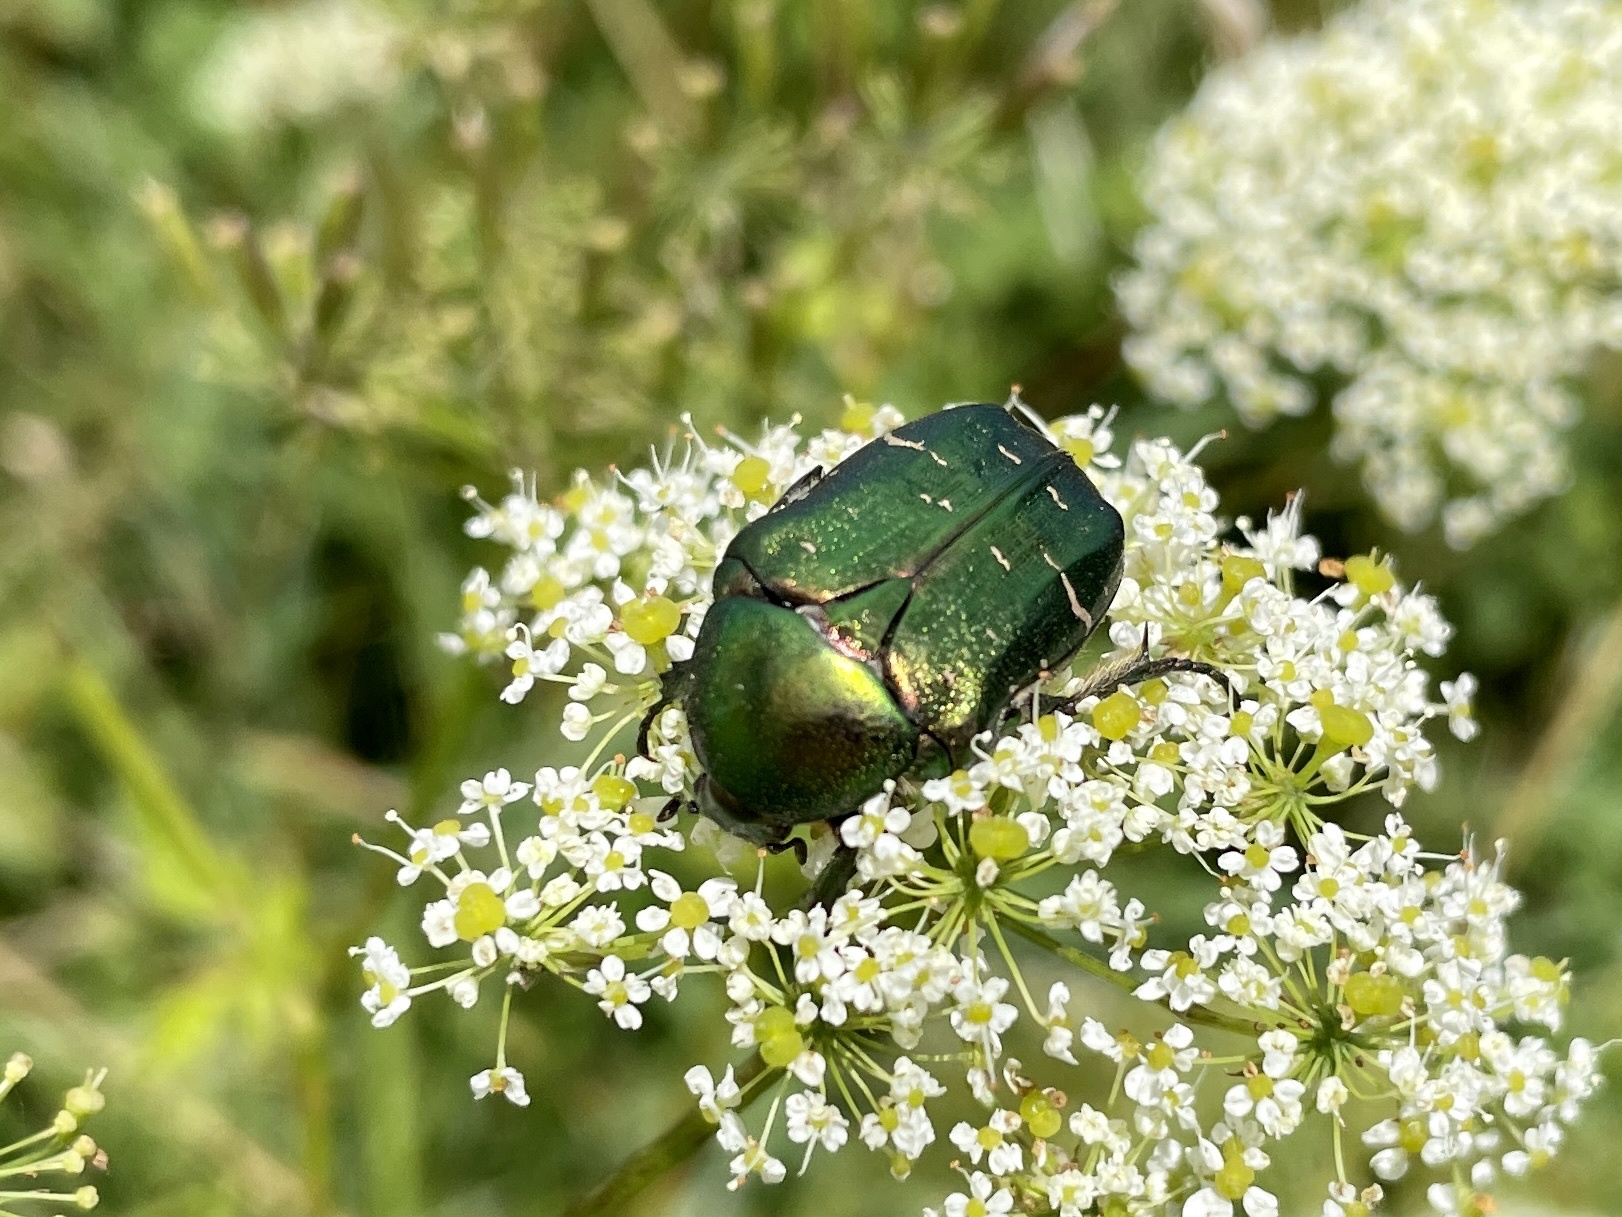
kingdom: Animalia
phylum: Arthropoda
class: Insecta
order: Coleoptera
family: Scarabaeidae
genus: Cetonia
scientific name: Cetonia aurata
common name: Rose chafer
